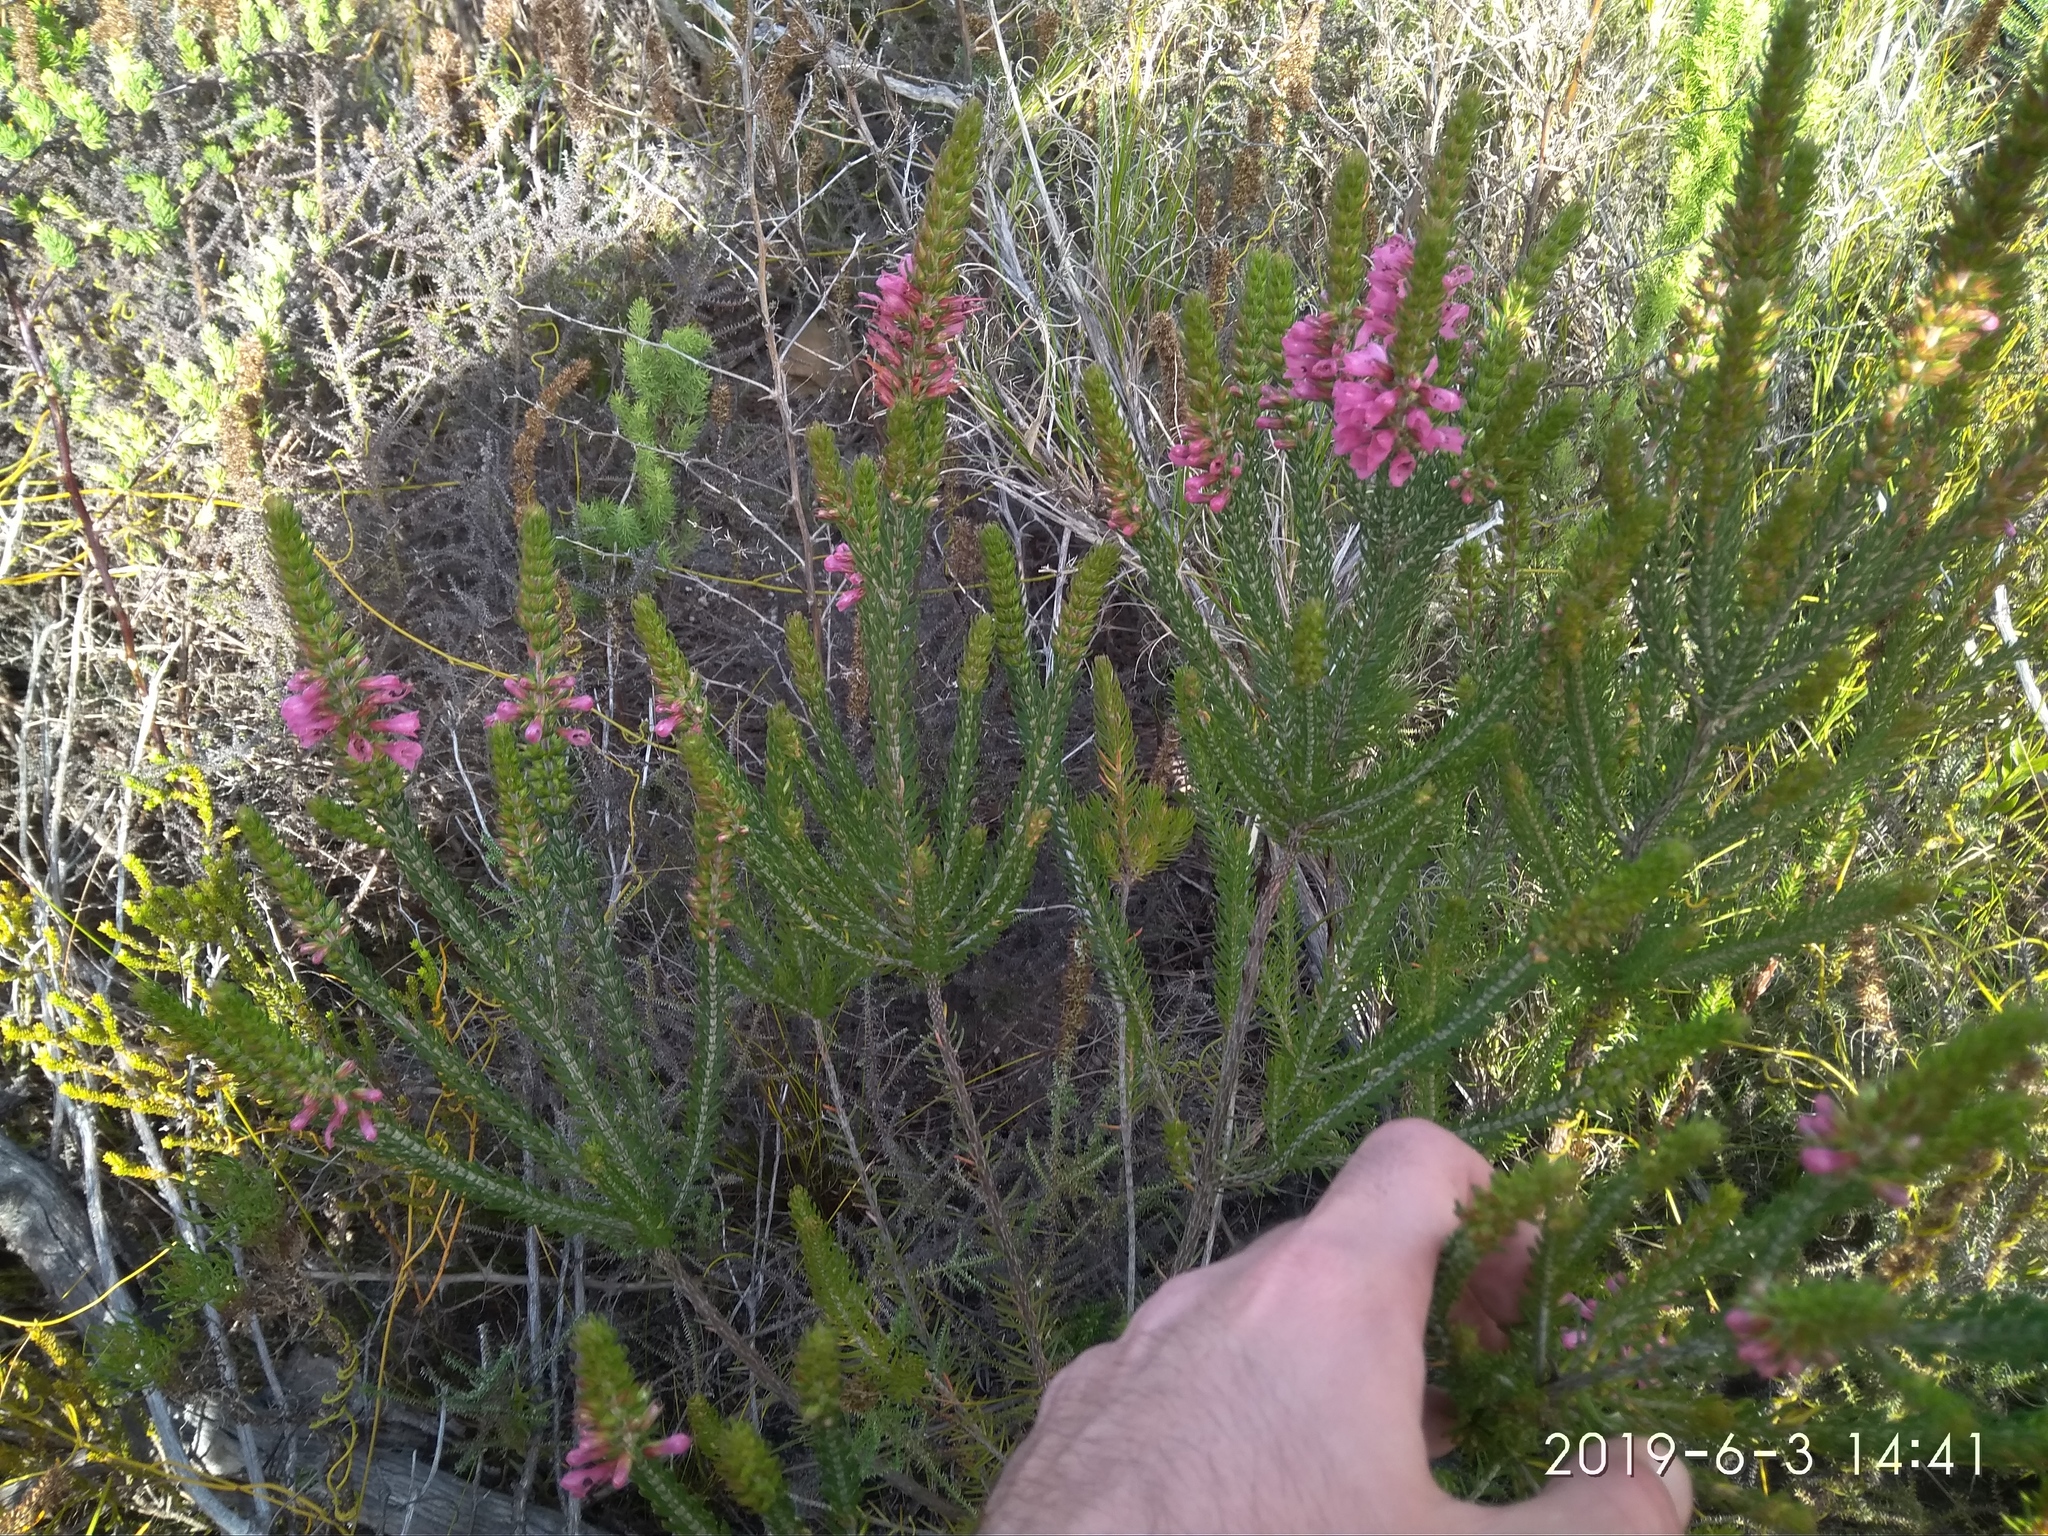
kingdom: Plantae
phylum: Tracheophyta
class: Magnoliopsida
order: Ericales
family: Ericaceae
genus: Erica
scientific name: Erica abietina
